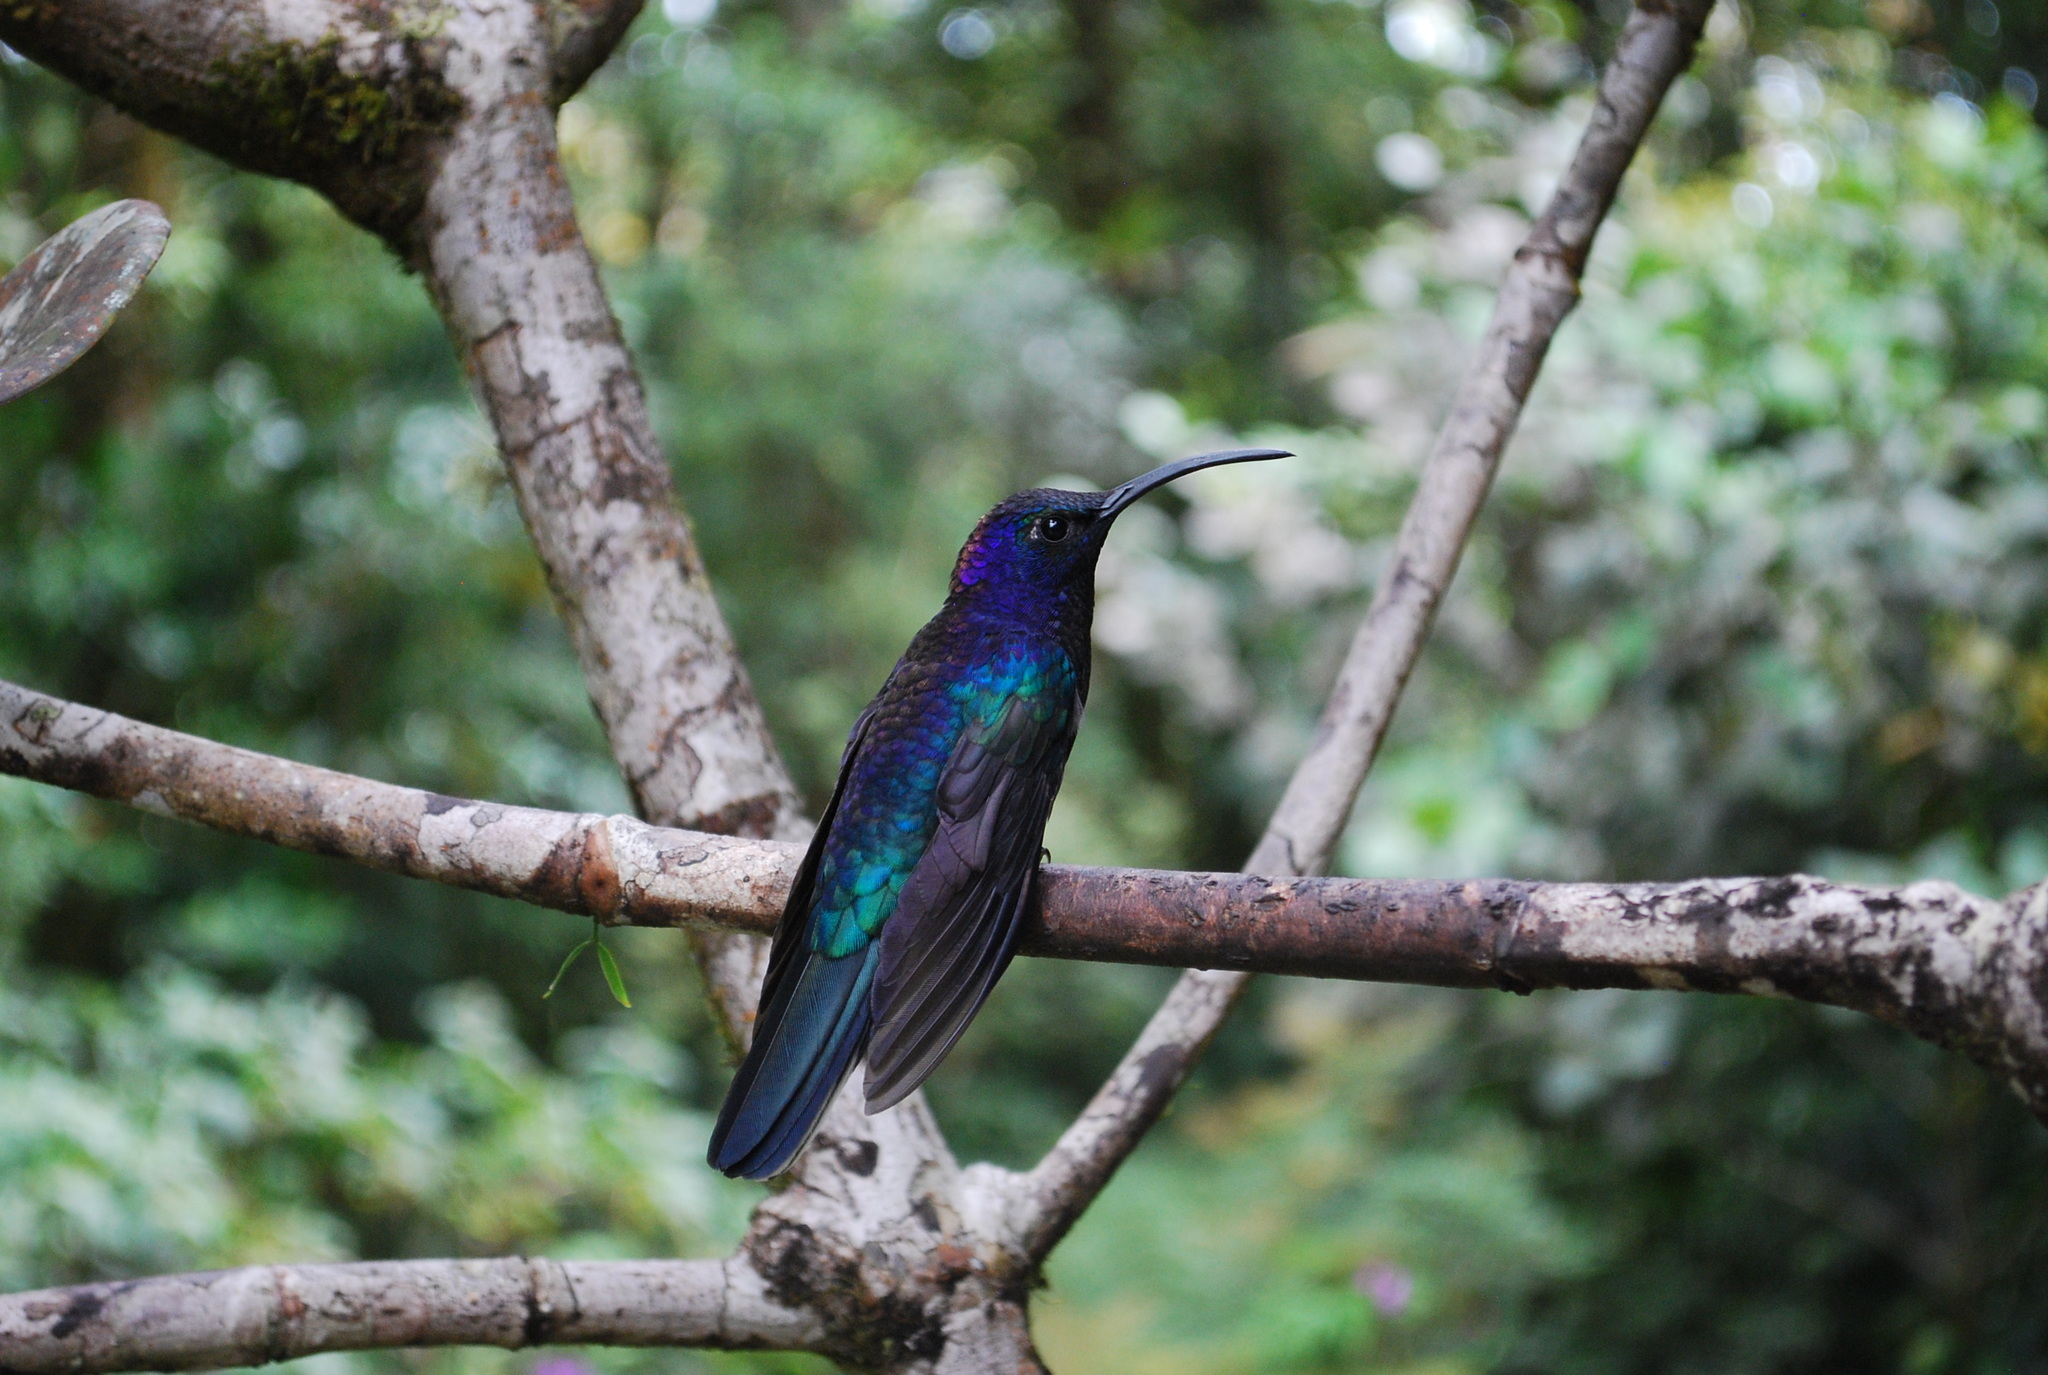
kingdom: Animalia
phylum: Chordata
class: Aves
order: Apodiformes
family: Trochilidae
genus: Campylopterus
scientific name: Campylopterus hemileucurus
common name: Violet sabrewing
